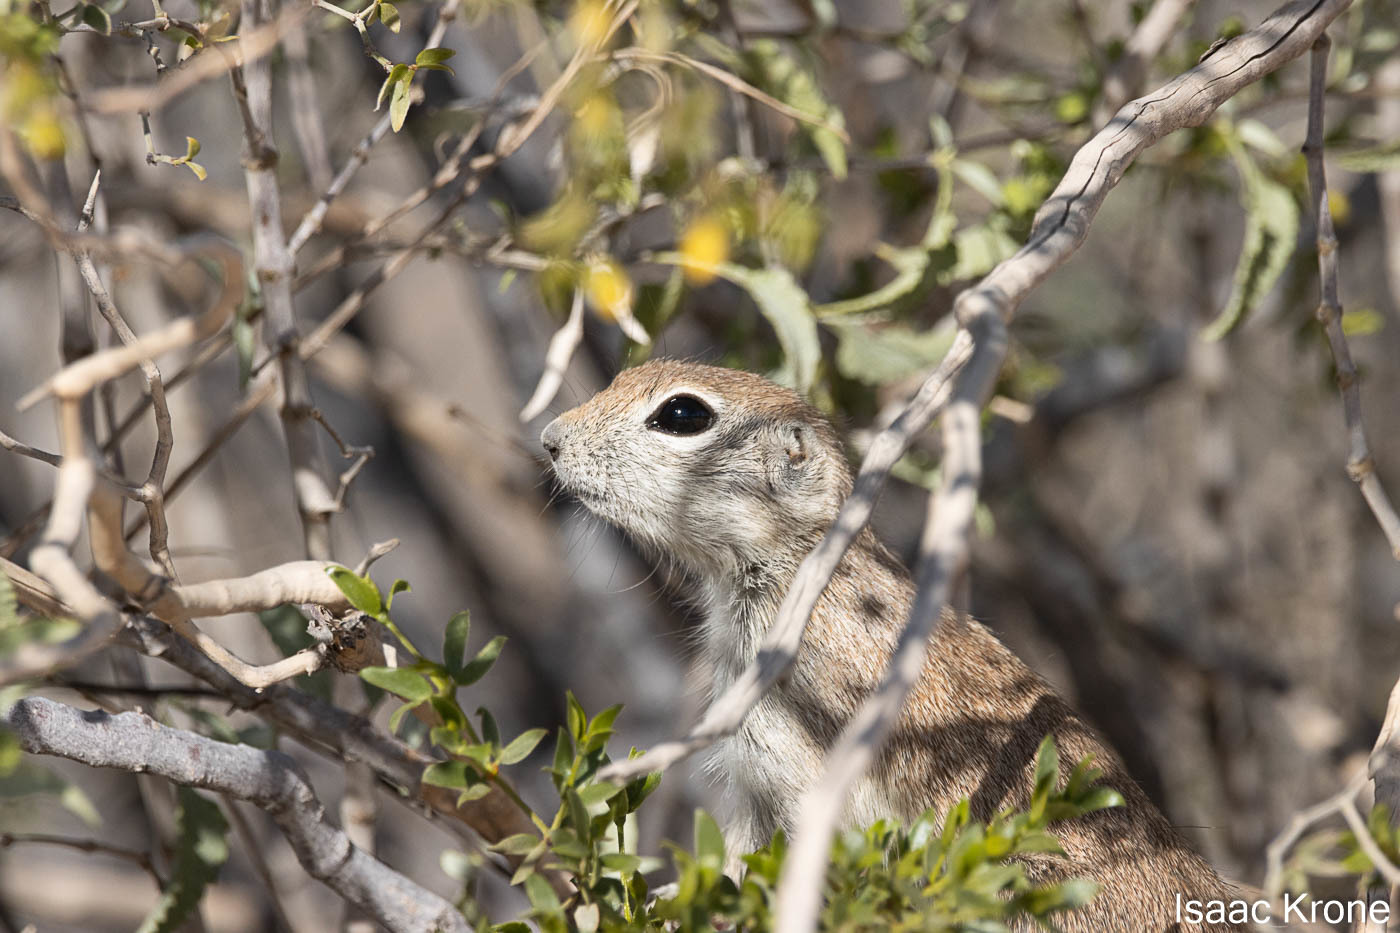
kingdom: Animalia
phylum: Chordata
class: Mammalia
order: Rodentia
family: Sciuridae
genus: Xerospermophilus
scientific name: Xerospermophilus tereticaudus
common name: Round-tailed ground squirrel
